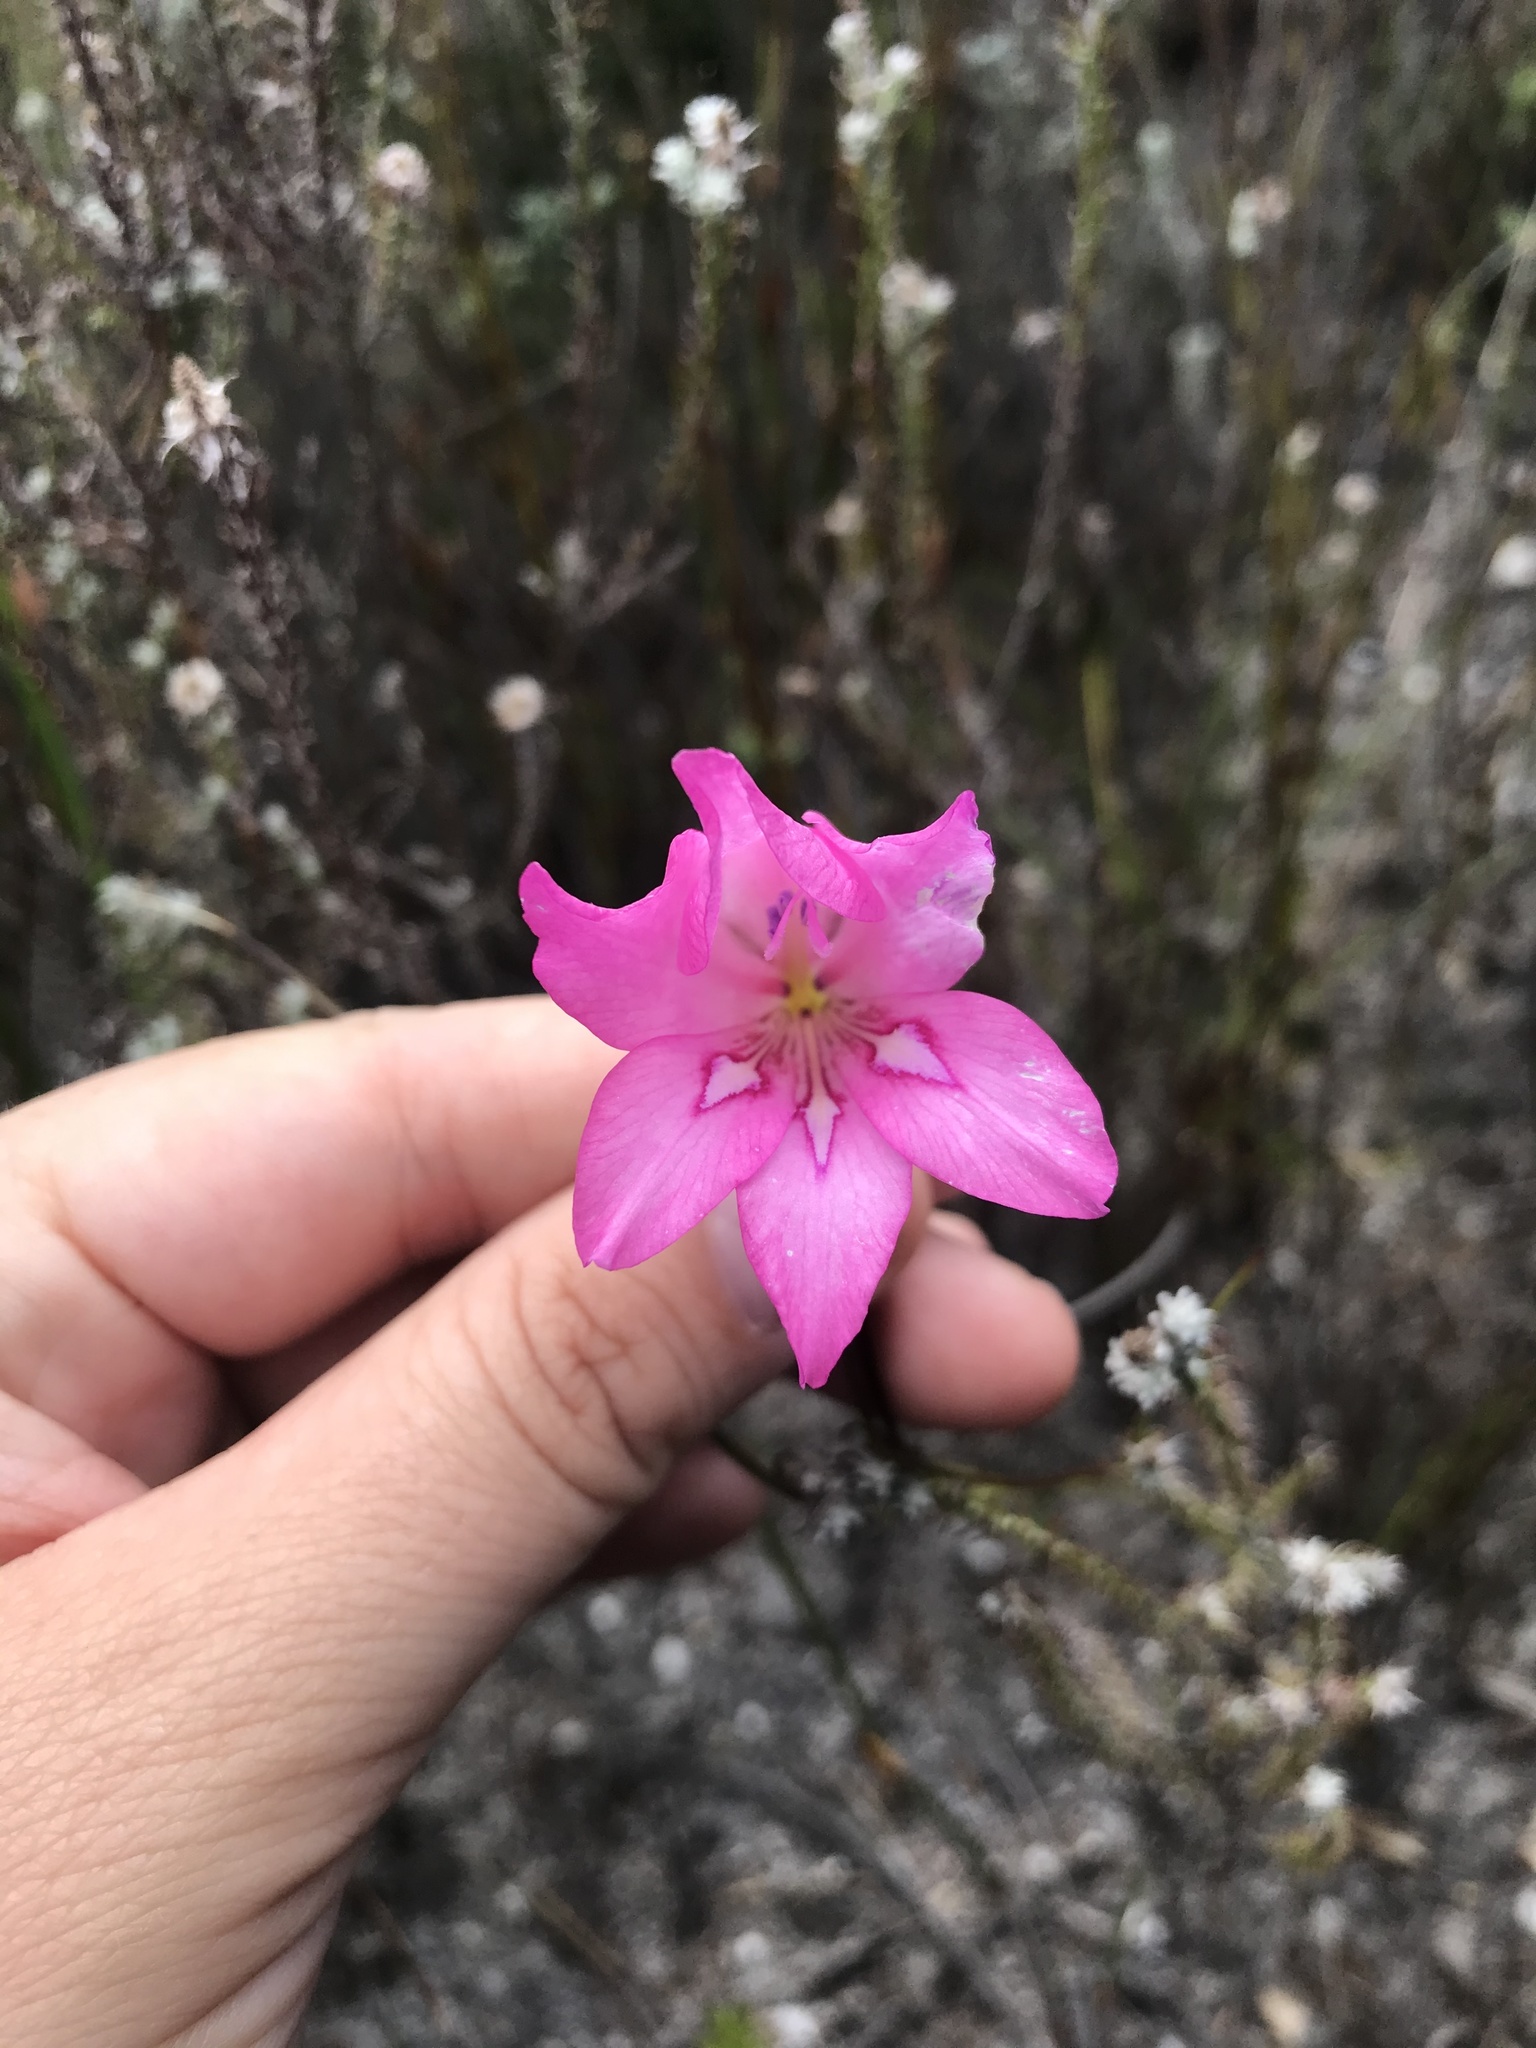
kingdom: Plantae
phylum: Tracheophyta
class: Liliopsida
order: Asparagales
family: Iridaceae
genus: Gladiolus
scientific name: Gladiolus ornatus
